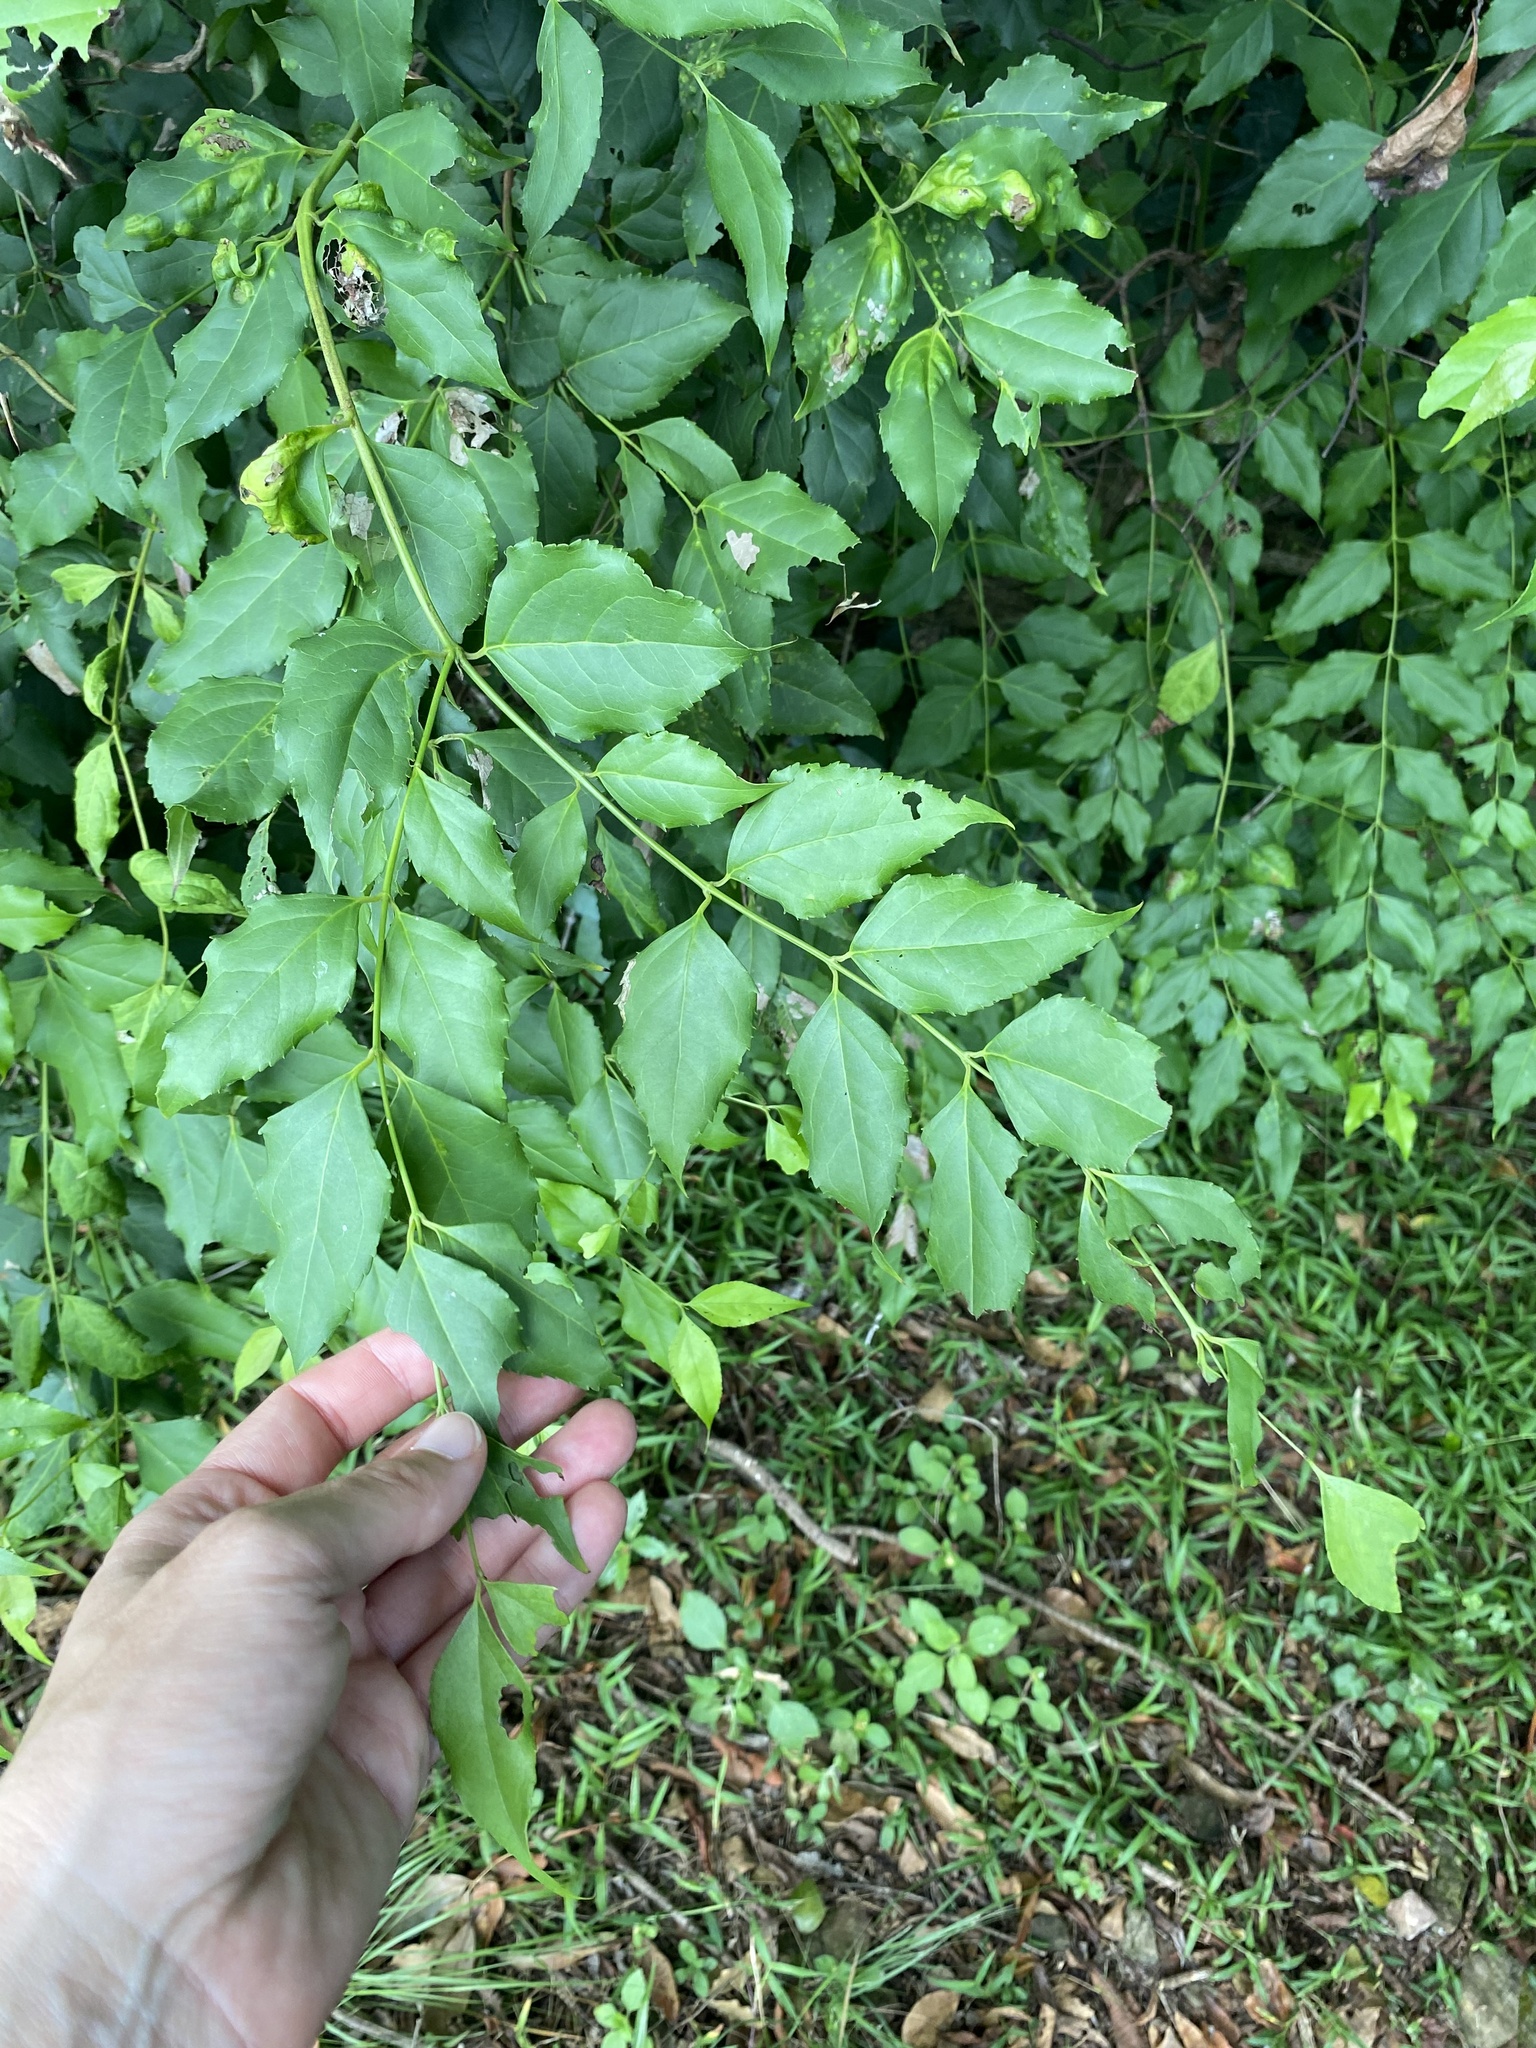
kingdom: Plantae
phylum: Tracheophyta
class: Magnoliopsida
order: Lamiales
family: Stilbaceae
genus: Halleria
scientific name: Halleria lucida
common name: Tree fuschia
